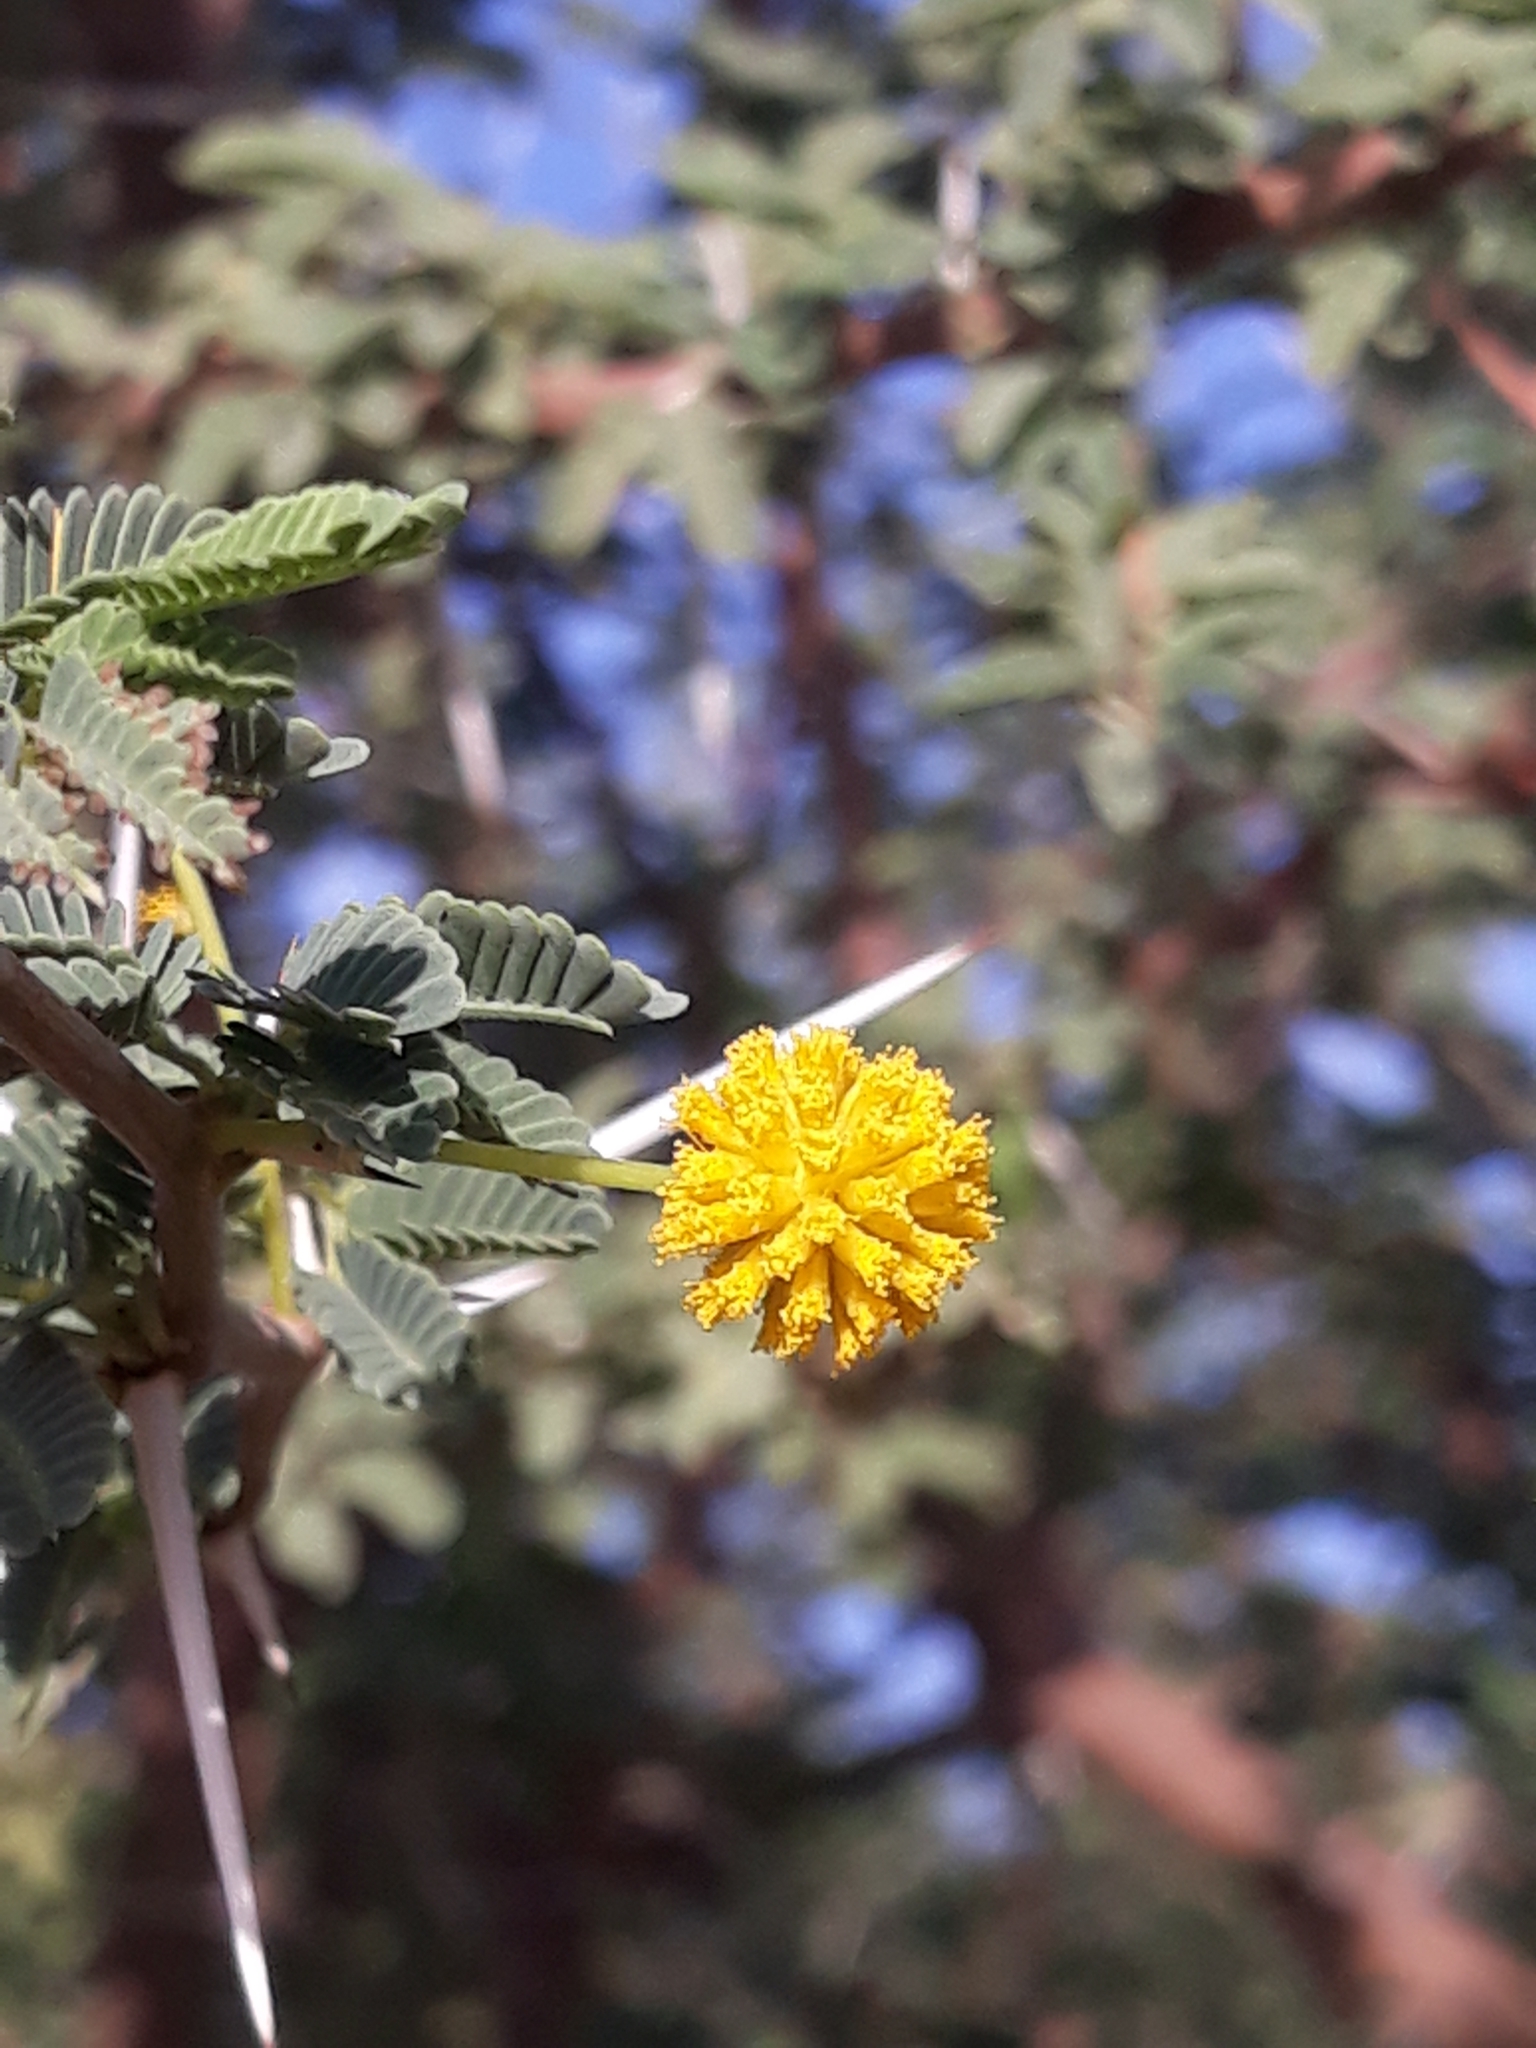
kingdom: Plantae
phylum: Tracheophyta
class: Magnoliopsida
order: Fabales
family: Fabaceae
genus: Vachellia
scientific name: Vachellia nilotica
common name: Arabic gumtree
